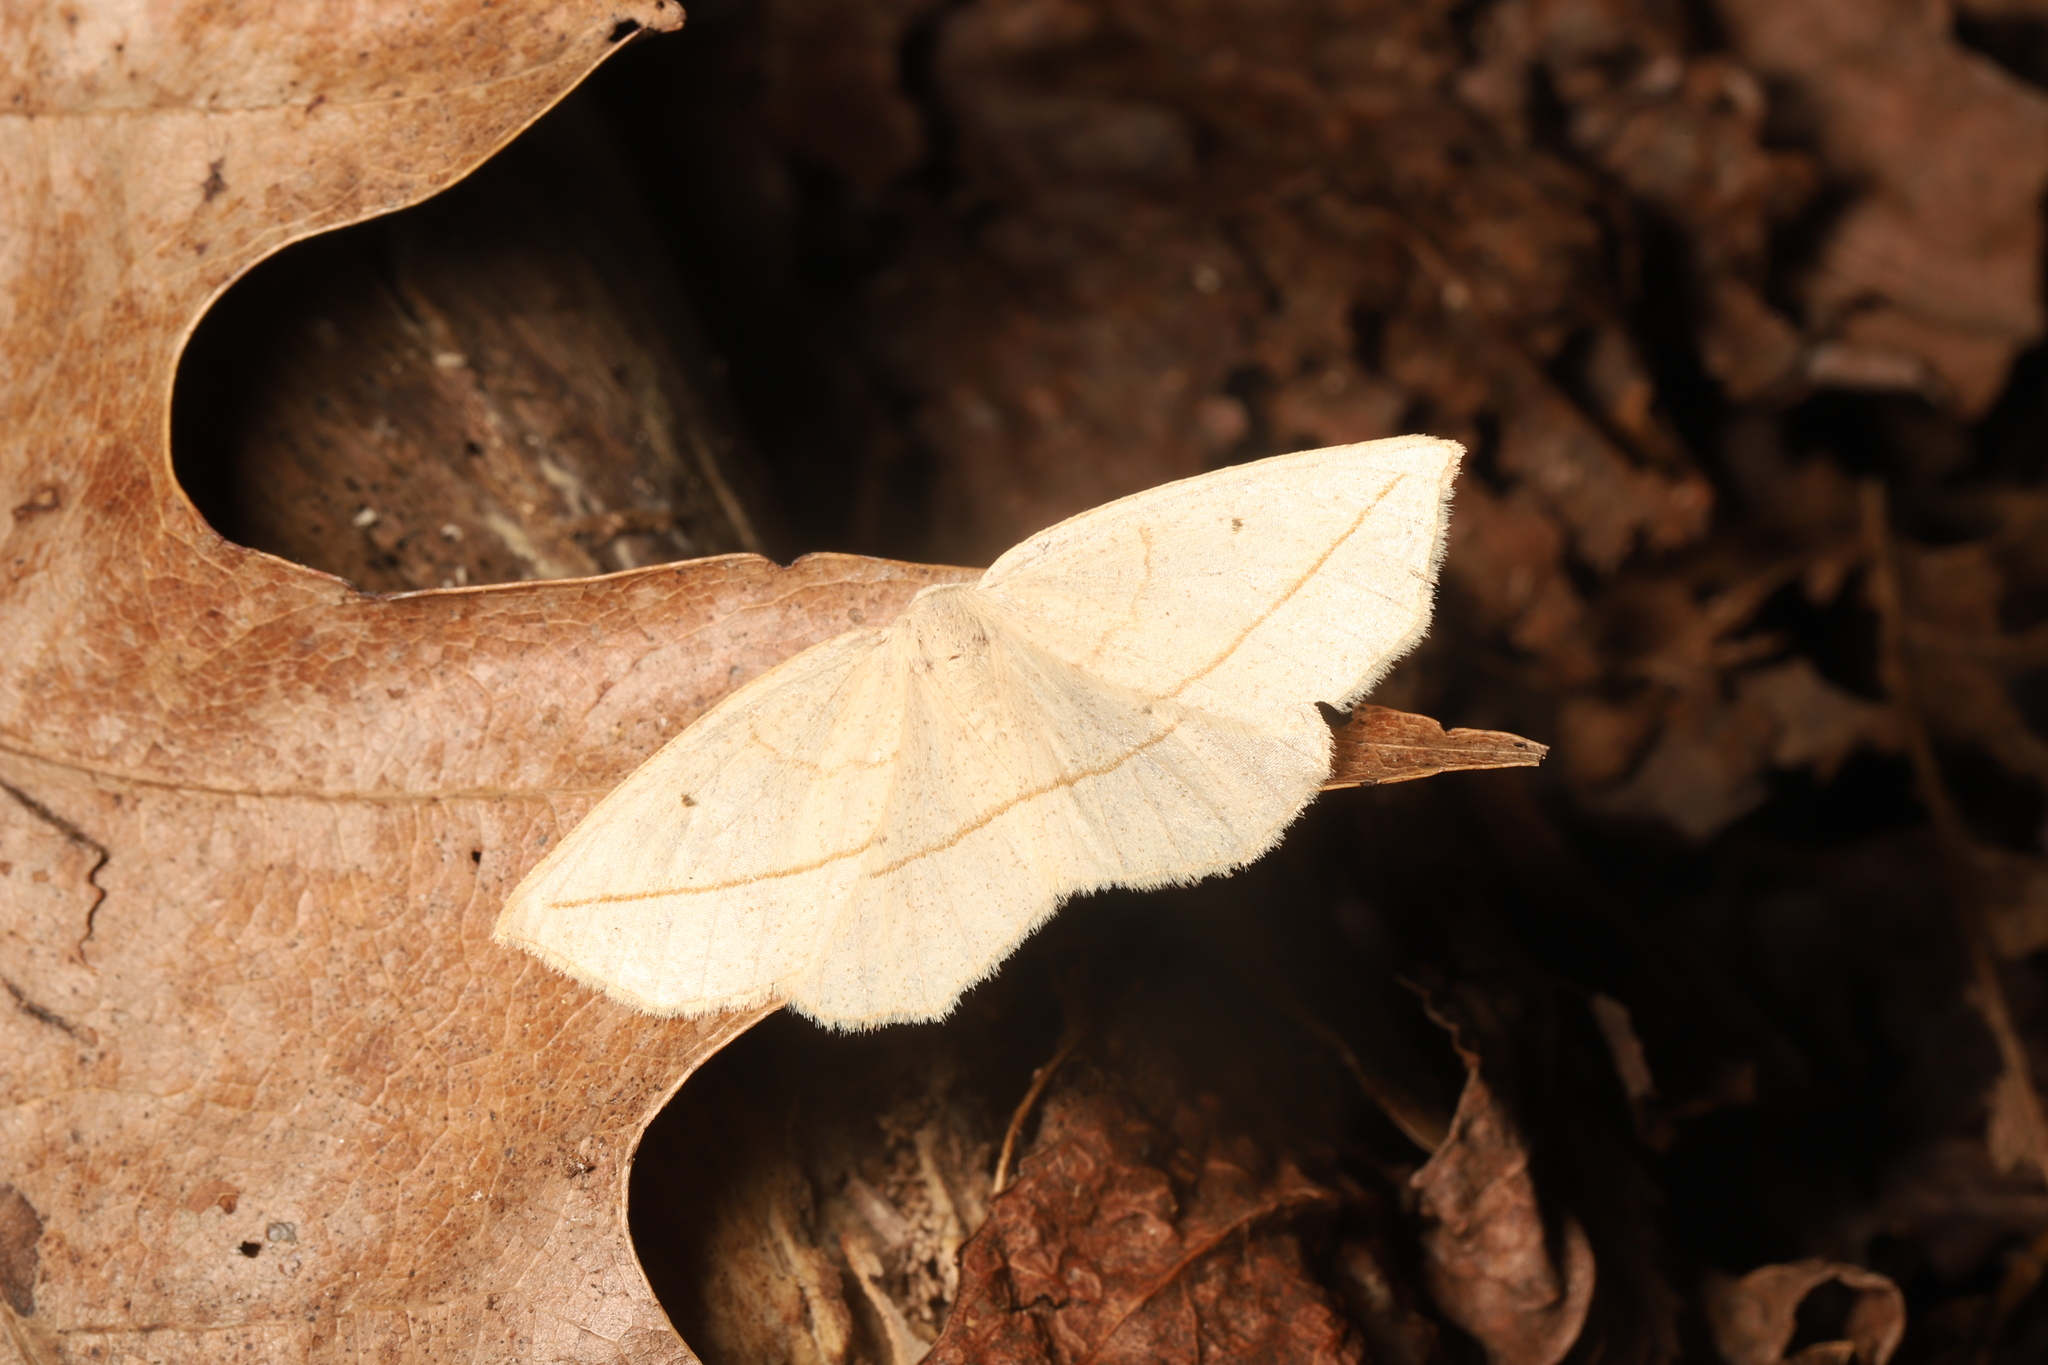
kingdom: Animalia
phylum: Arthropoda
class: Insecta
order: Lepidoptera
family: Geometridae
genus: Eusarca
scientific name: Eusarca confusaria
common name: Confused eusarca
